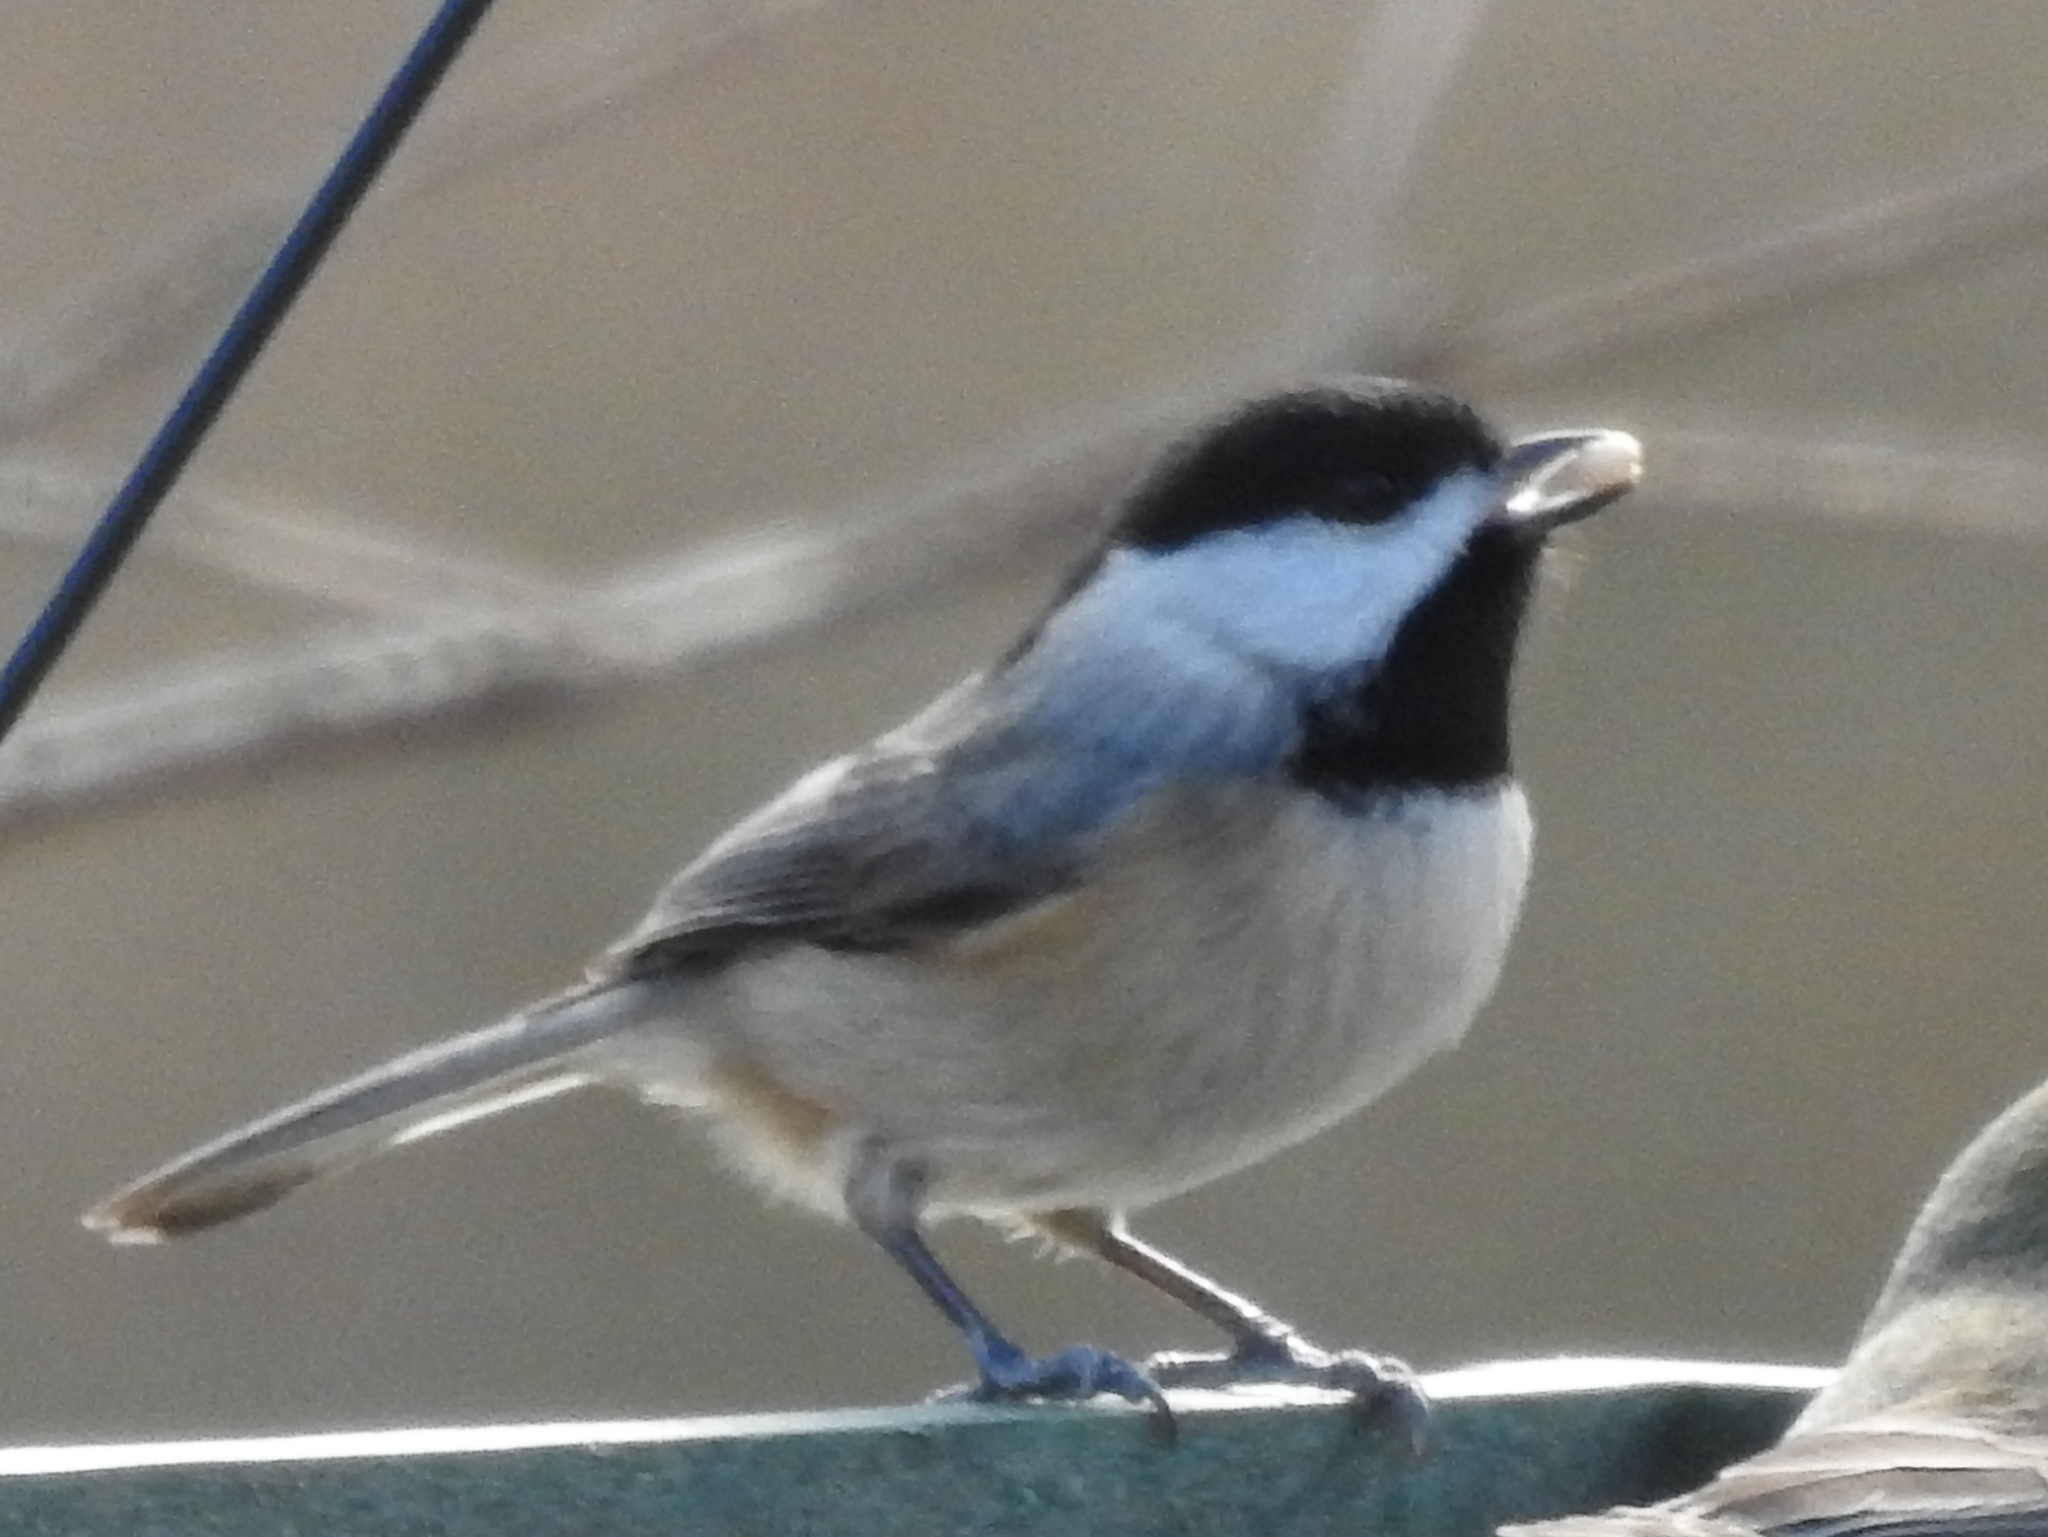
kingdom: Animalia
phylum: Chordata
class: Aves
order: Passeriformes
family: Paridae
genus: Poecile
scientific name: Poecile carolinensis
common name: Carolina chickadee
